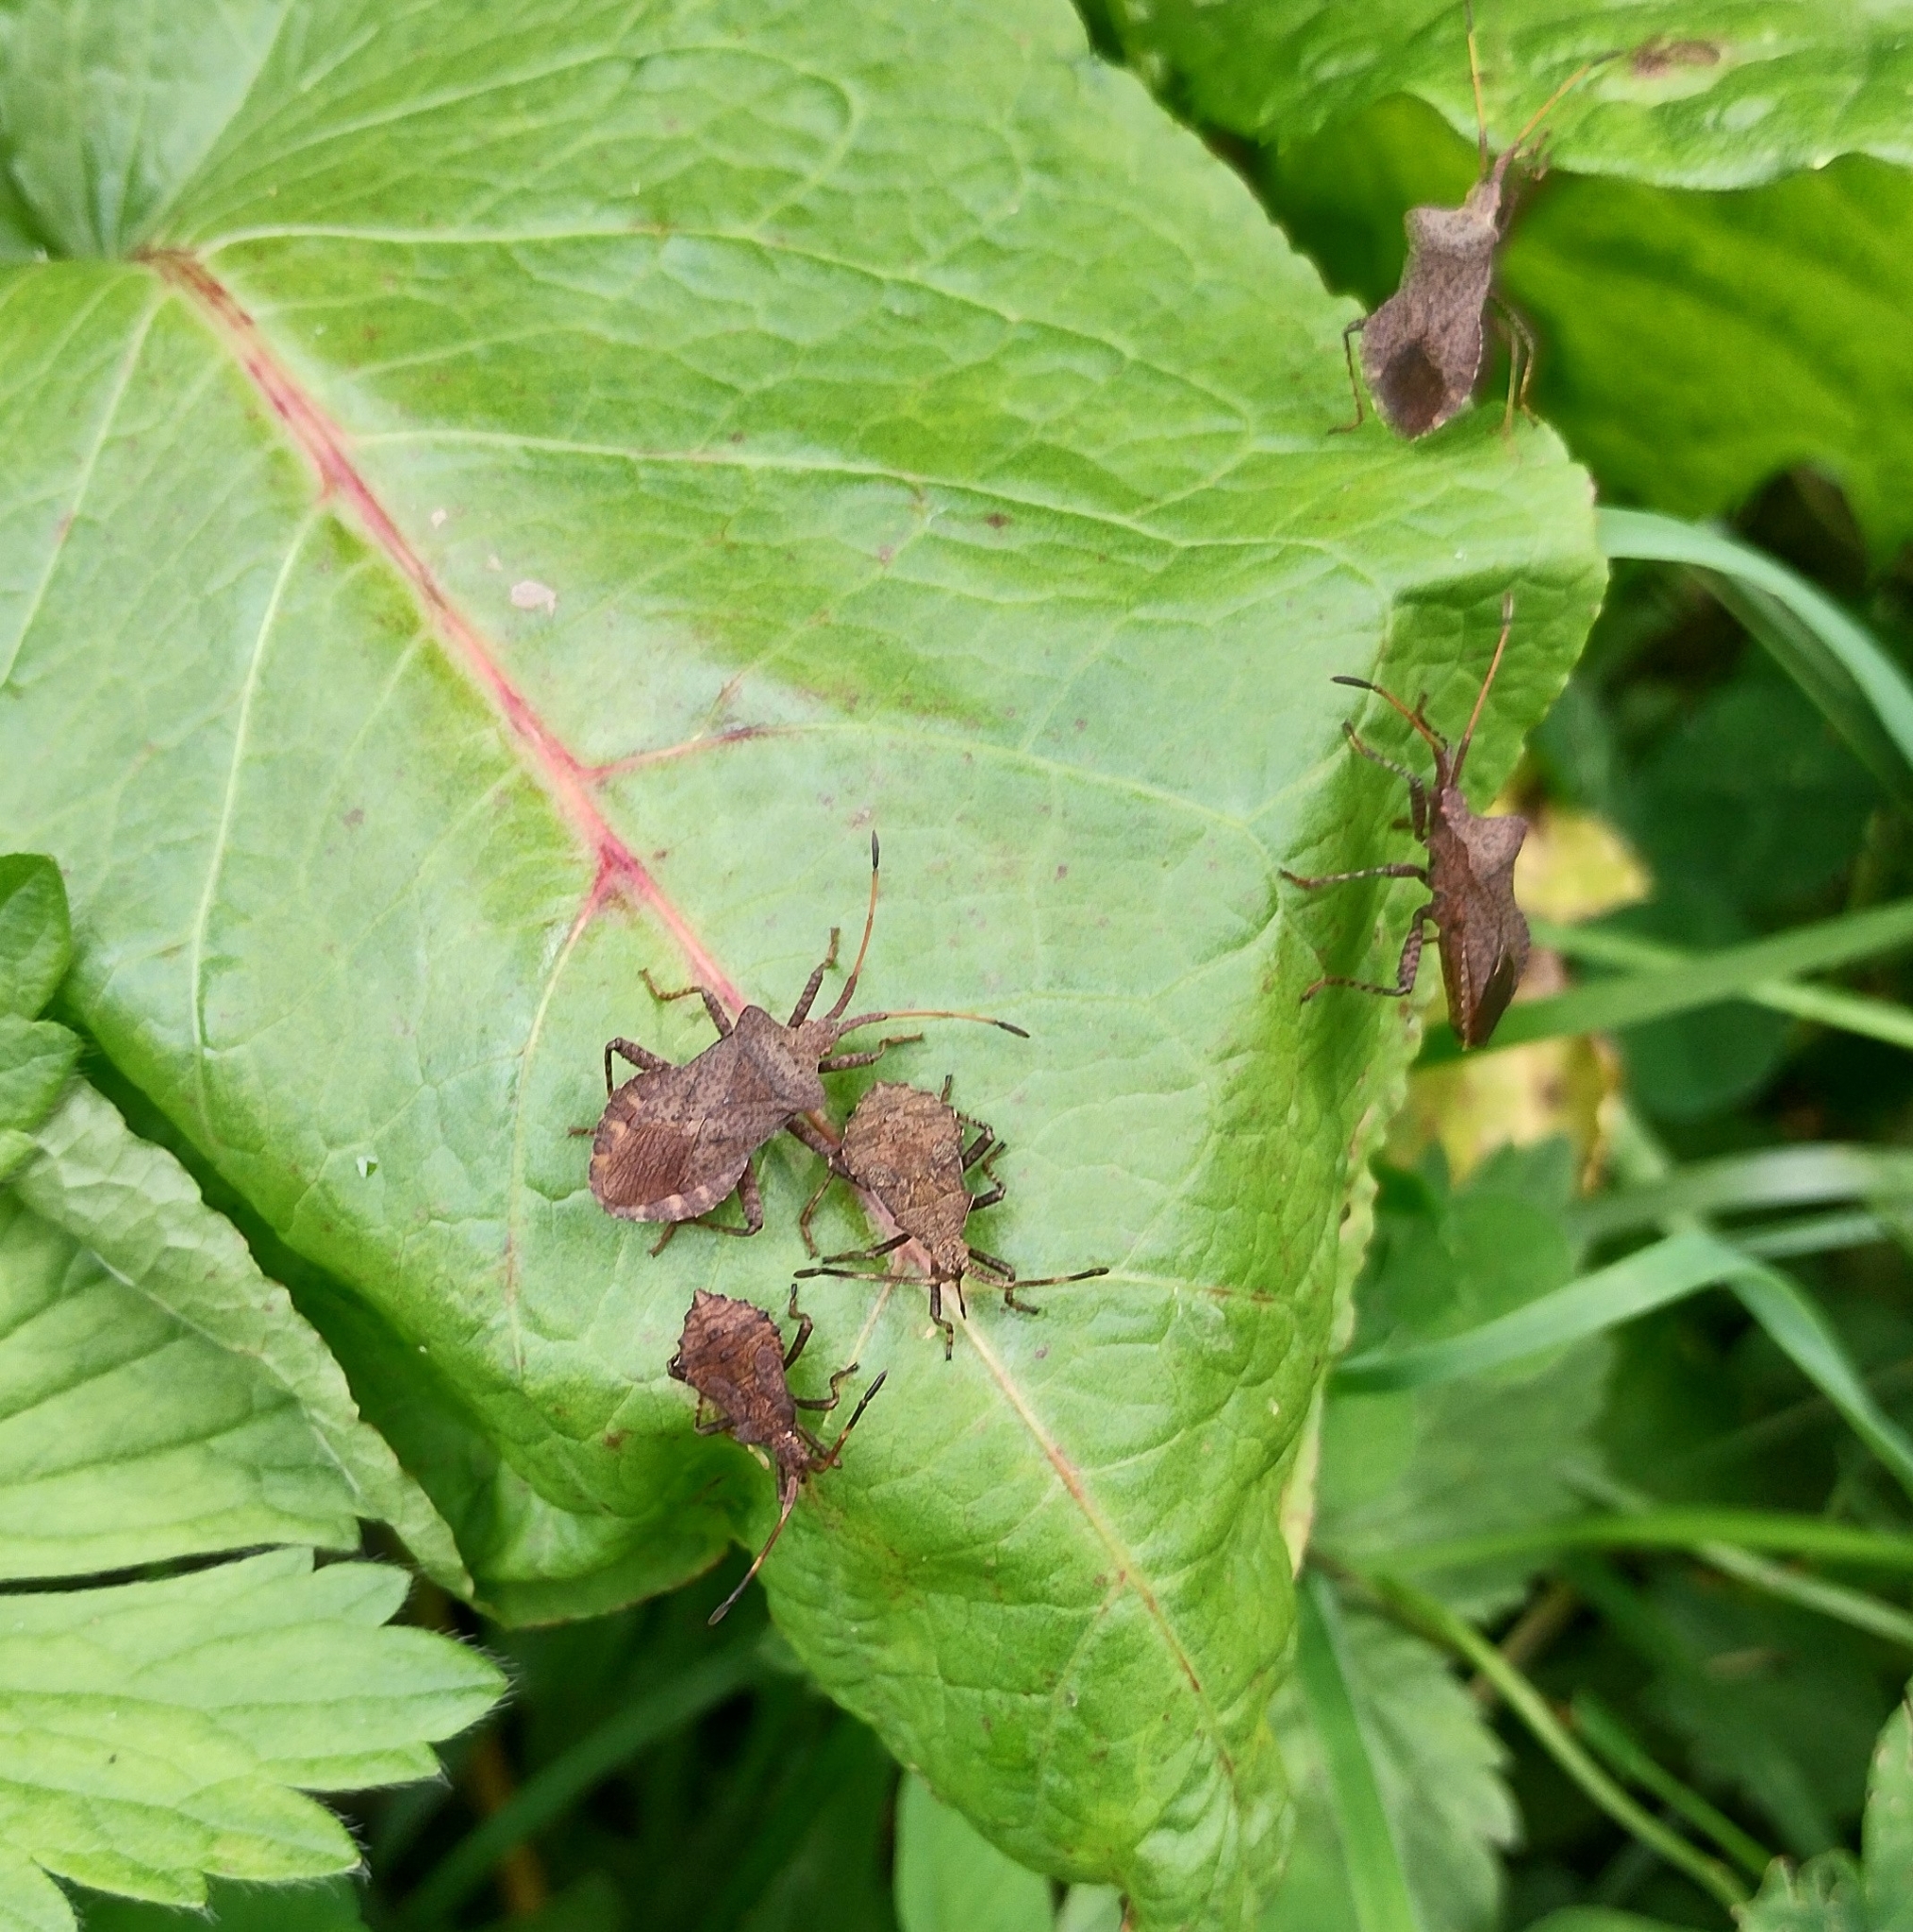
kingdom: Animalia
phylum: Arthropoda
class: Insecta
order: Hemiptera
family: Coreidae
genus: Coreus
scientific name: Coreus marginatus
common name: Dock bug
